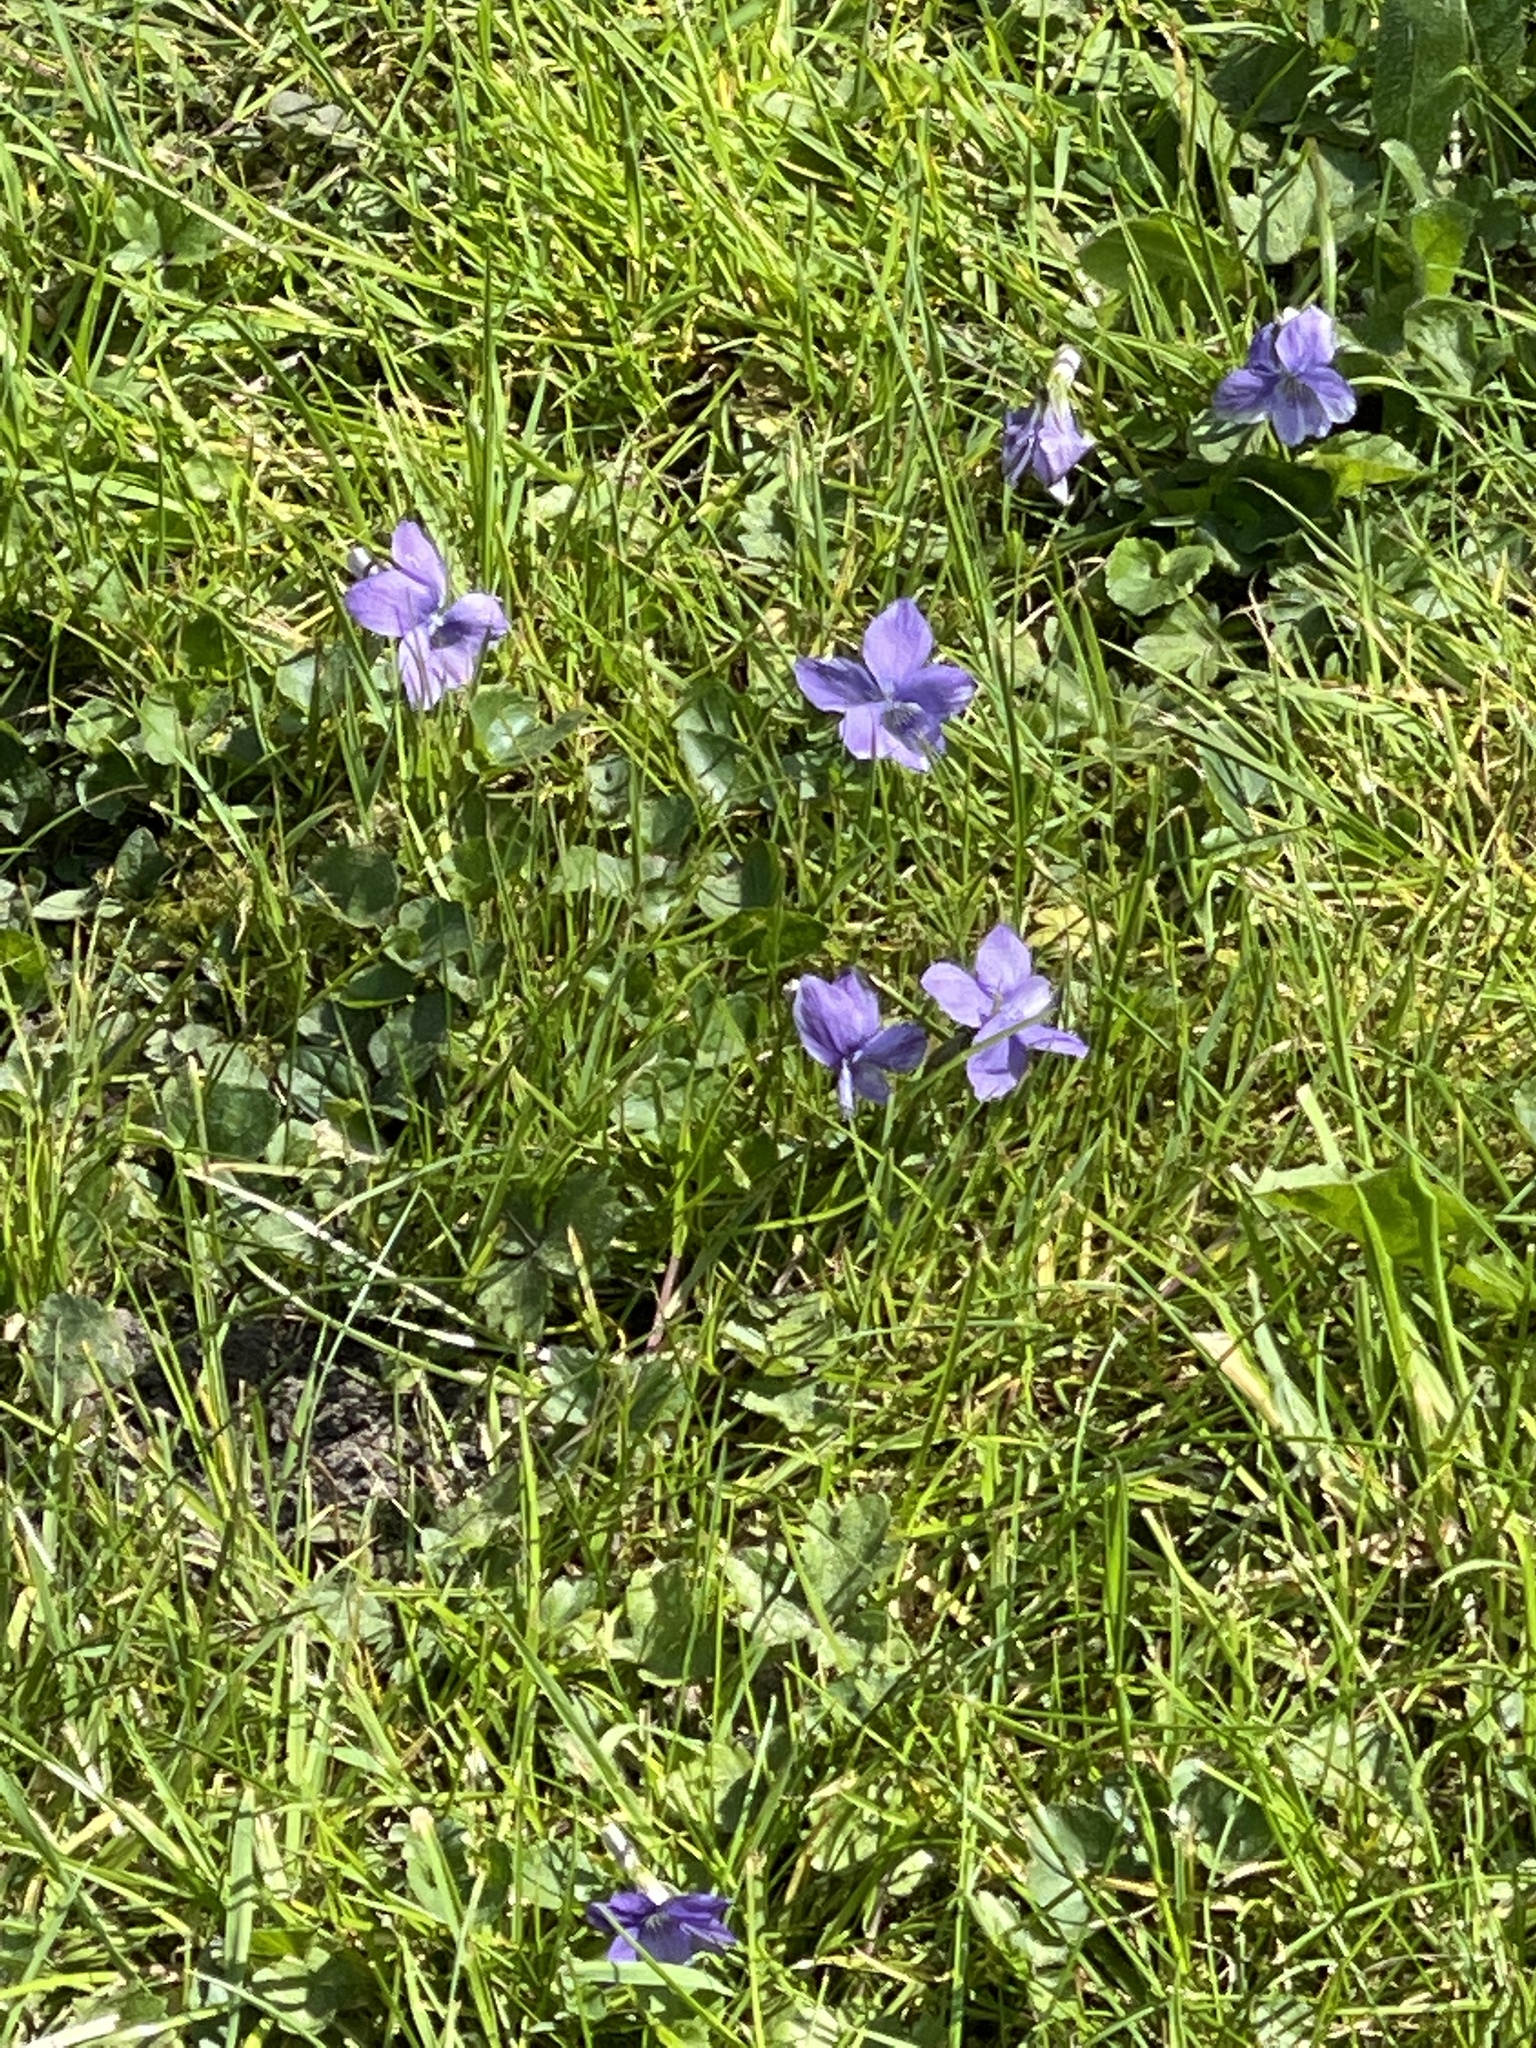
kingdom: Plantae
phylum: Tracheophyta
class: Magnoliopsida
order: Malpighiales
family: Violaceae
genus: Viola
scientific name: Viola riviniana
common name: Common dog-violet
